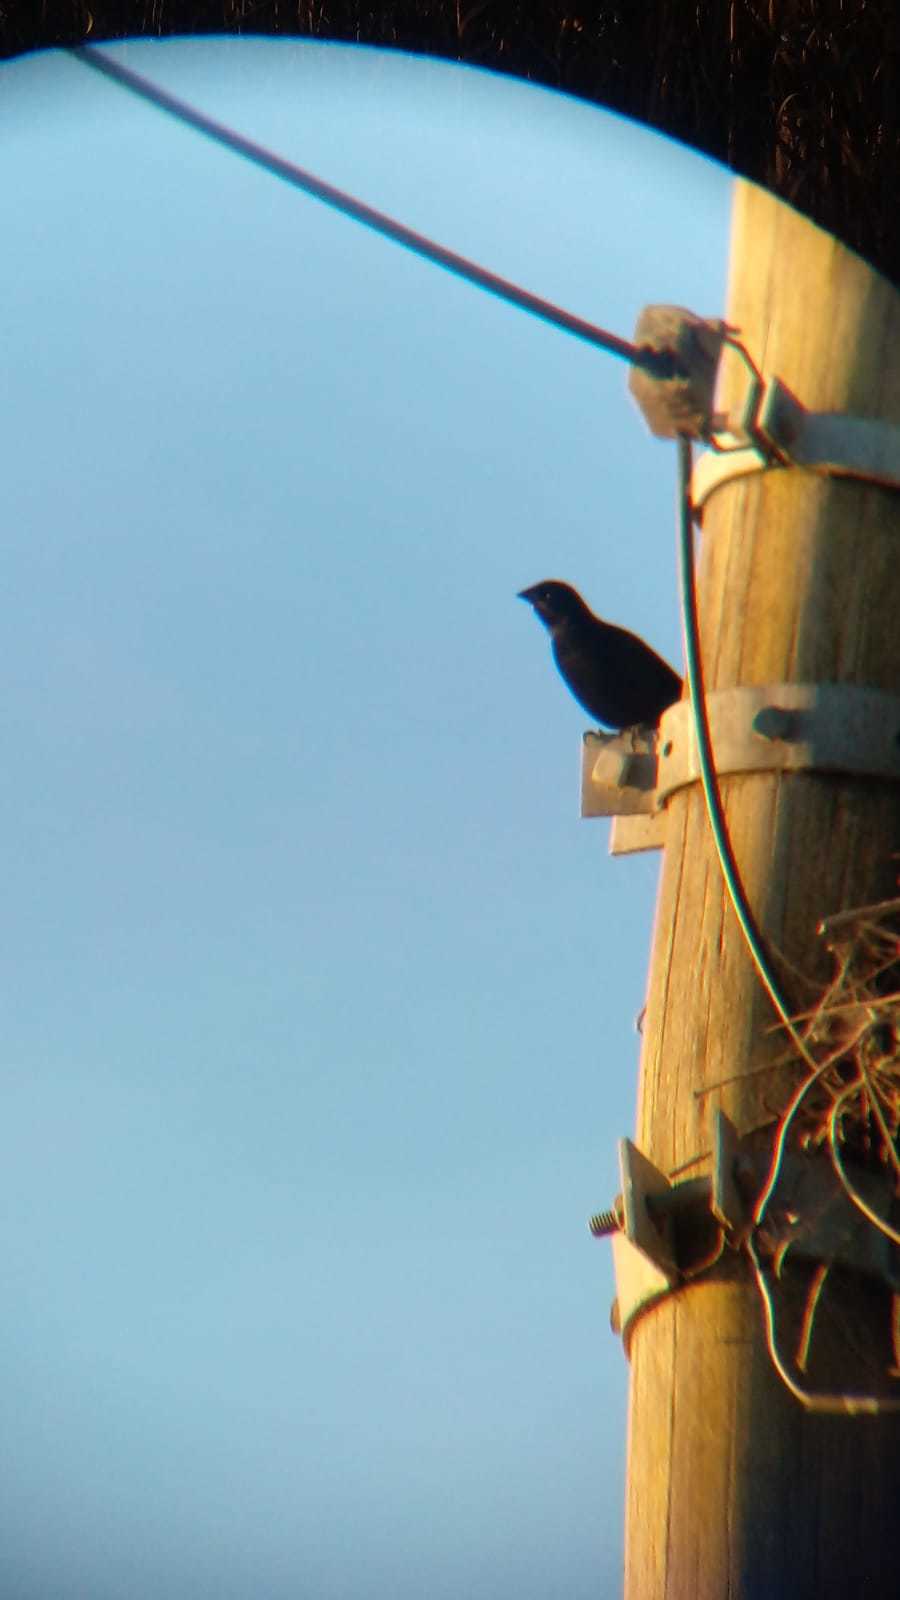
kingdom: Animalia
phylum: Chordata
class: Aves
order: Passeriformes
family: Icteridae
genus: Molothrus
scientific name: Molothrus rufoaxillaris
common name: Screaming cowbird
